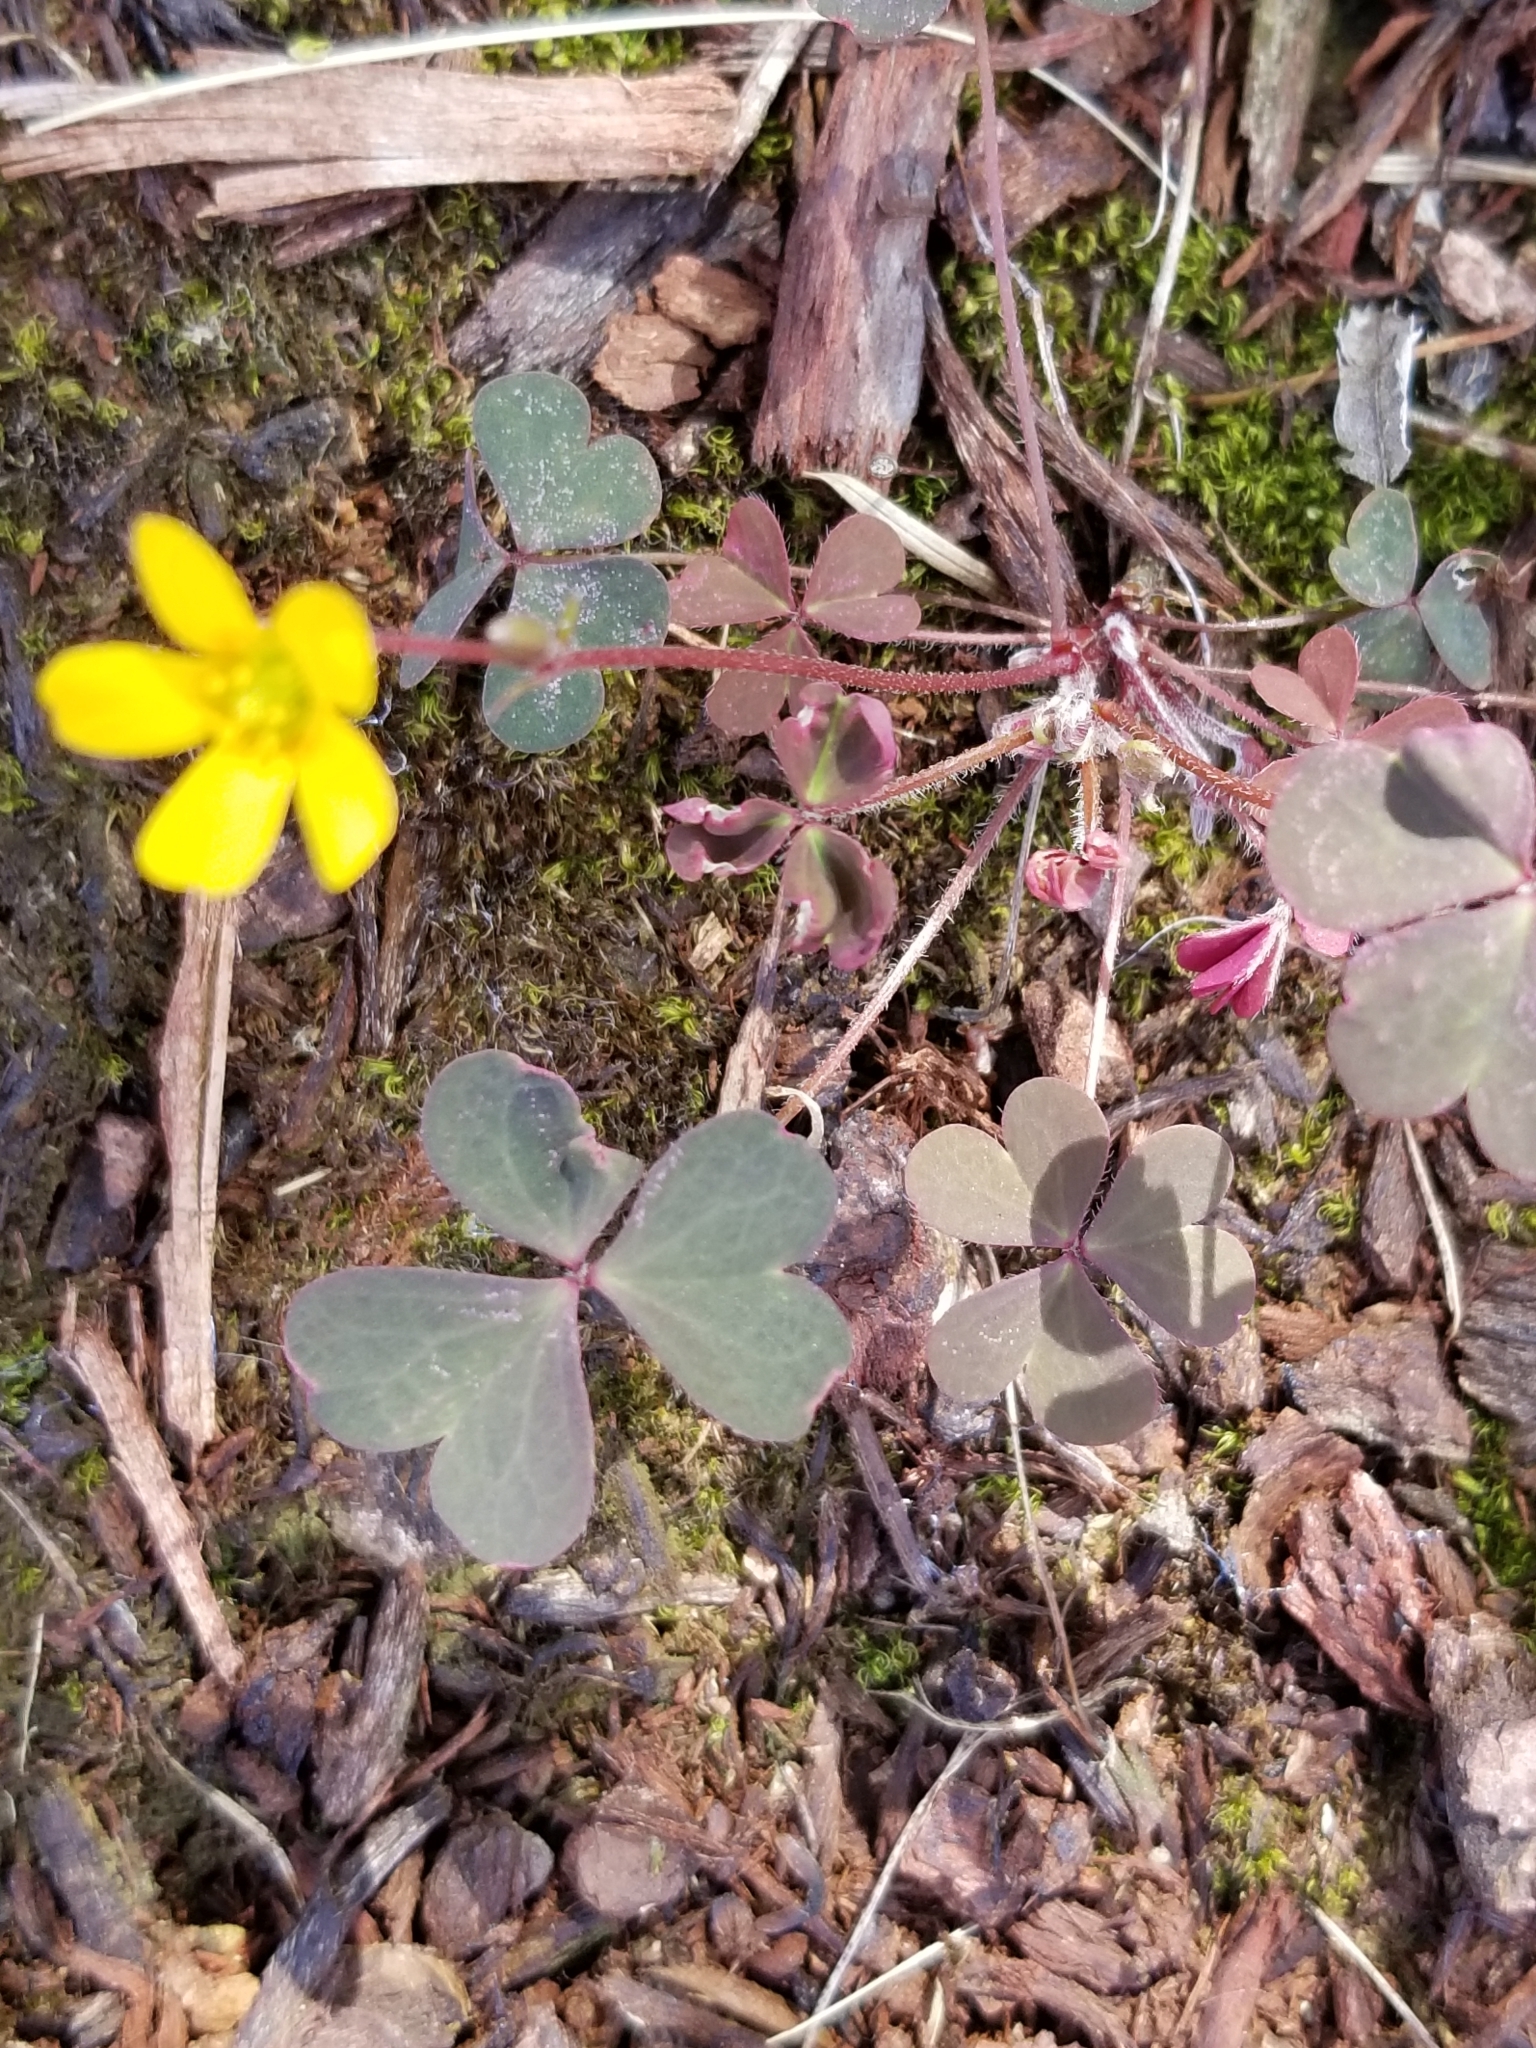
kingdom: Plantae
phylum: Tracheophyta
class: Magnoliopsida
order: Oxalidales
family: Oxalidaceae
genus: Oxalis
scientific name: Oxalis corniculata
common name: Procumbent yellow-sorrel
